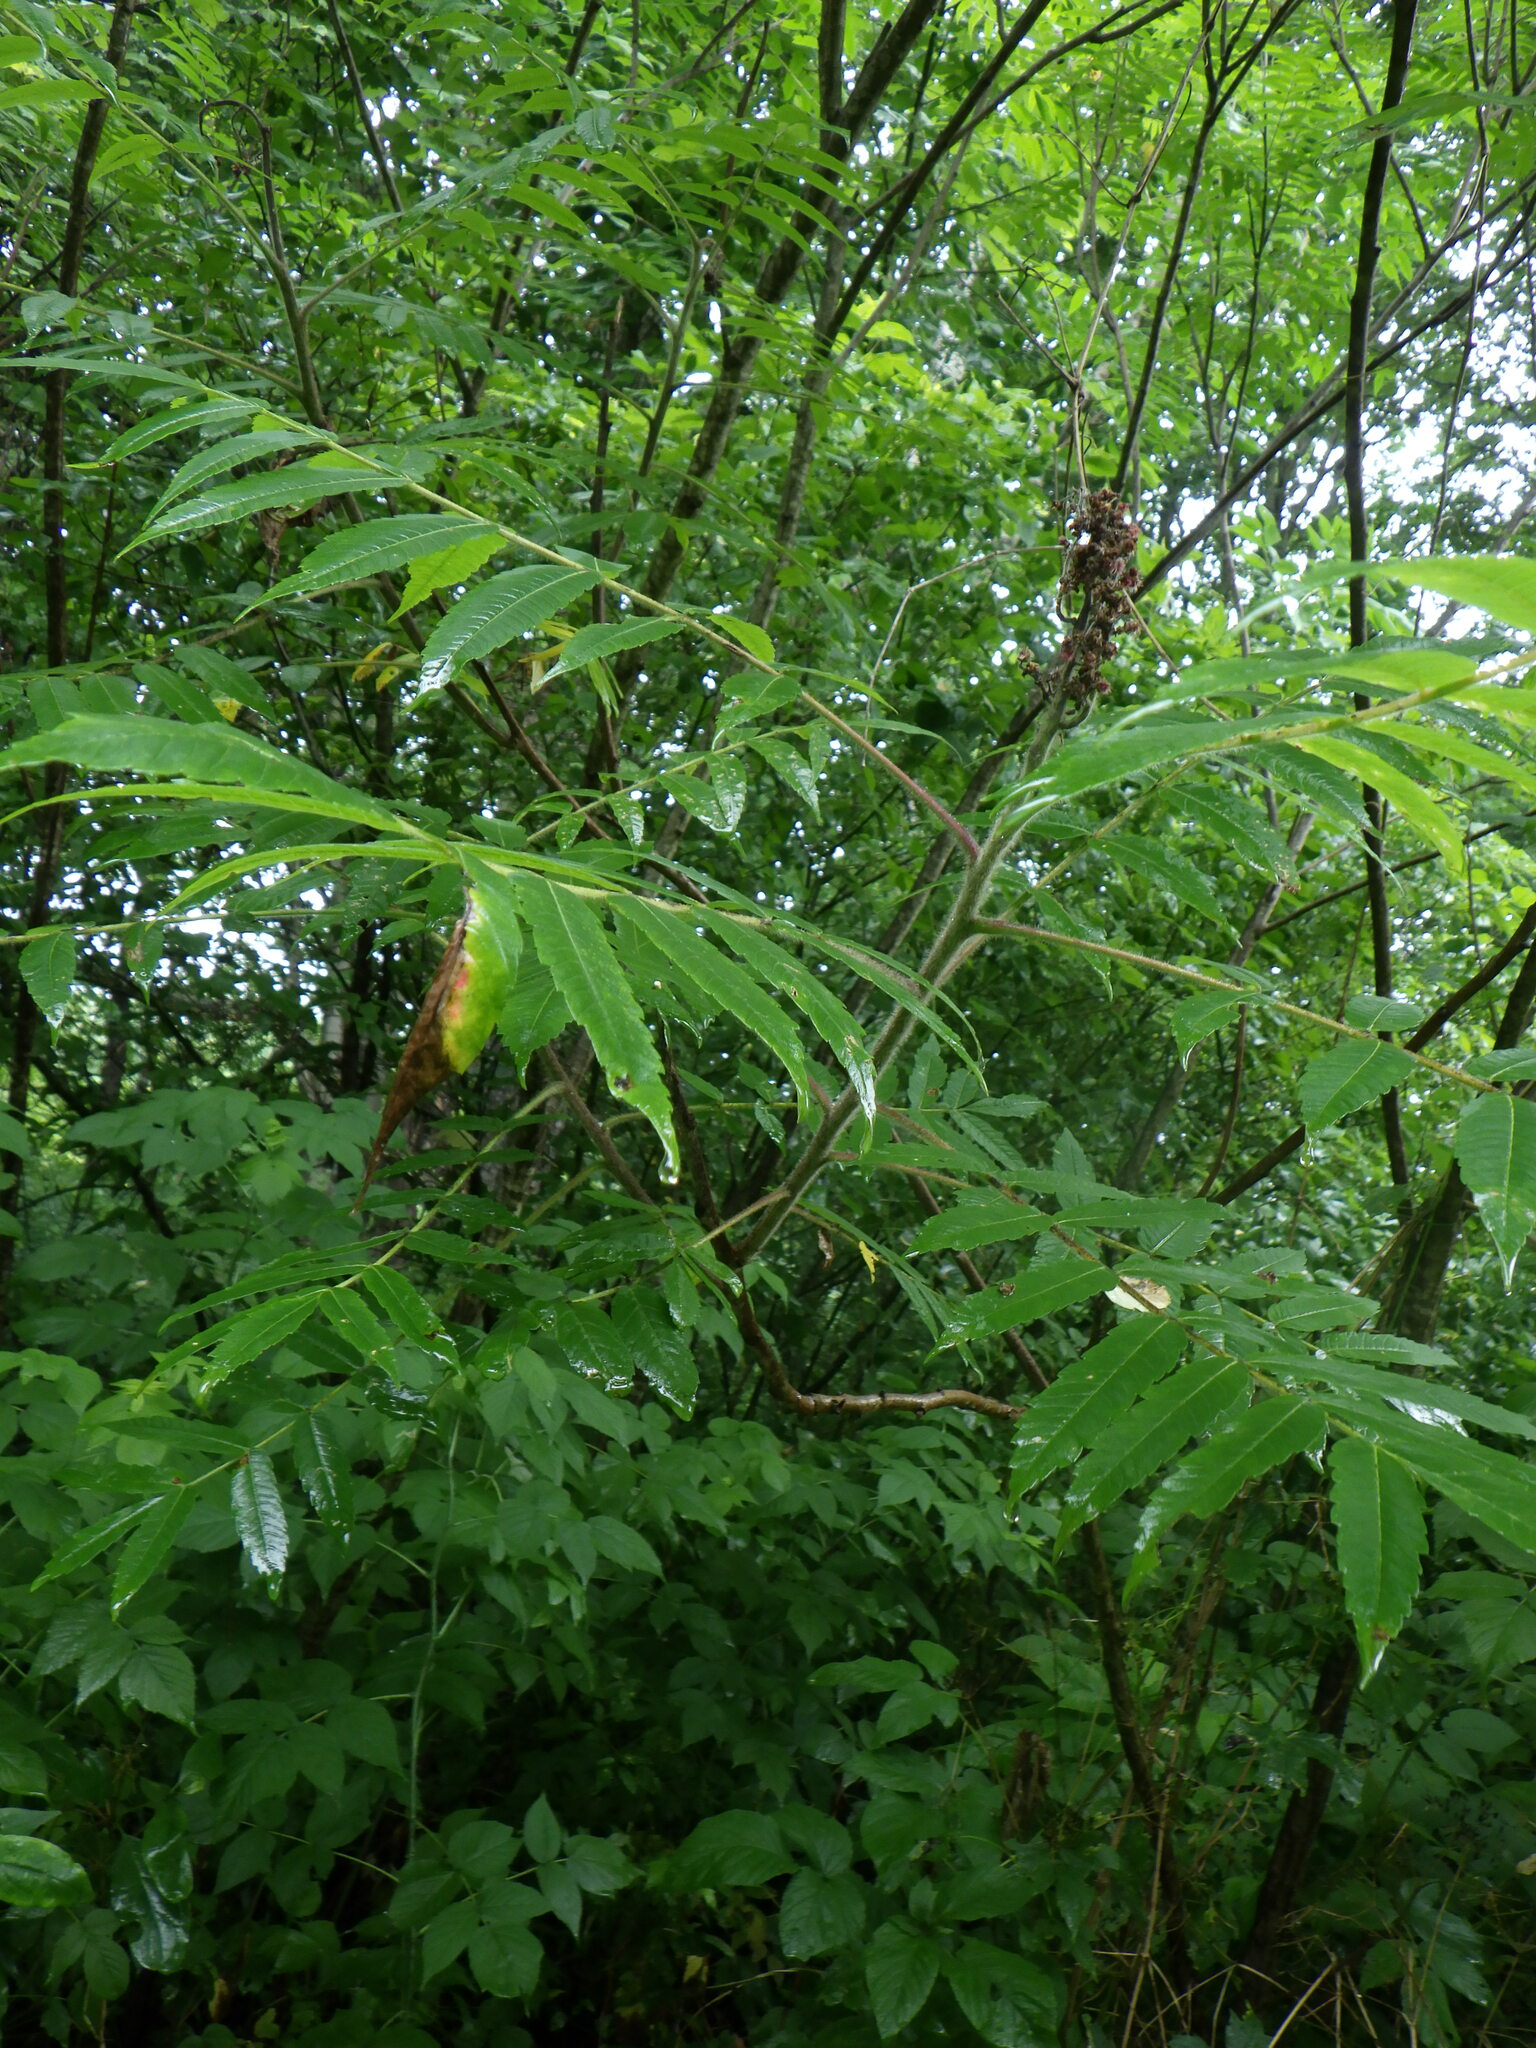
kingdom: Plantae
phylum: Tracheophyta
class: Magnoliopsida
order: Sapindales
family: Anacardiaceae
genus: Rhus
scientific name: Rhus typhina
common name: Staghorn sumac
